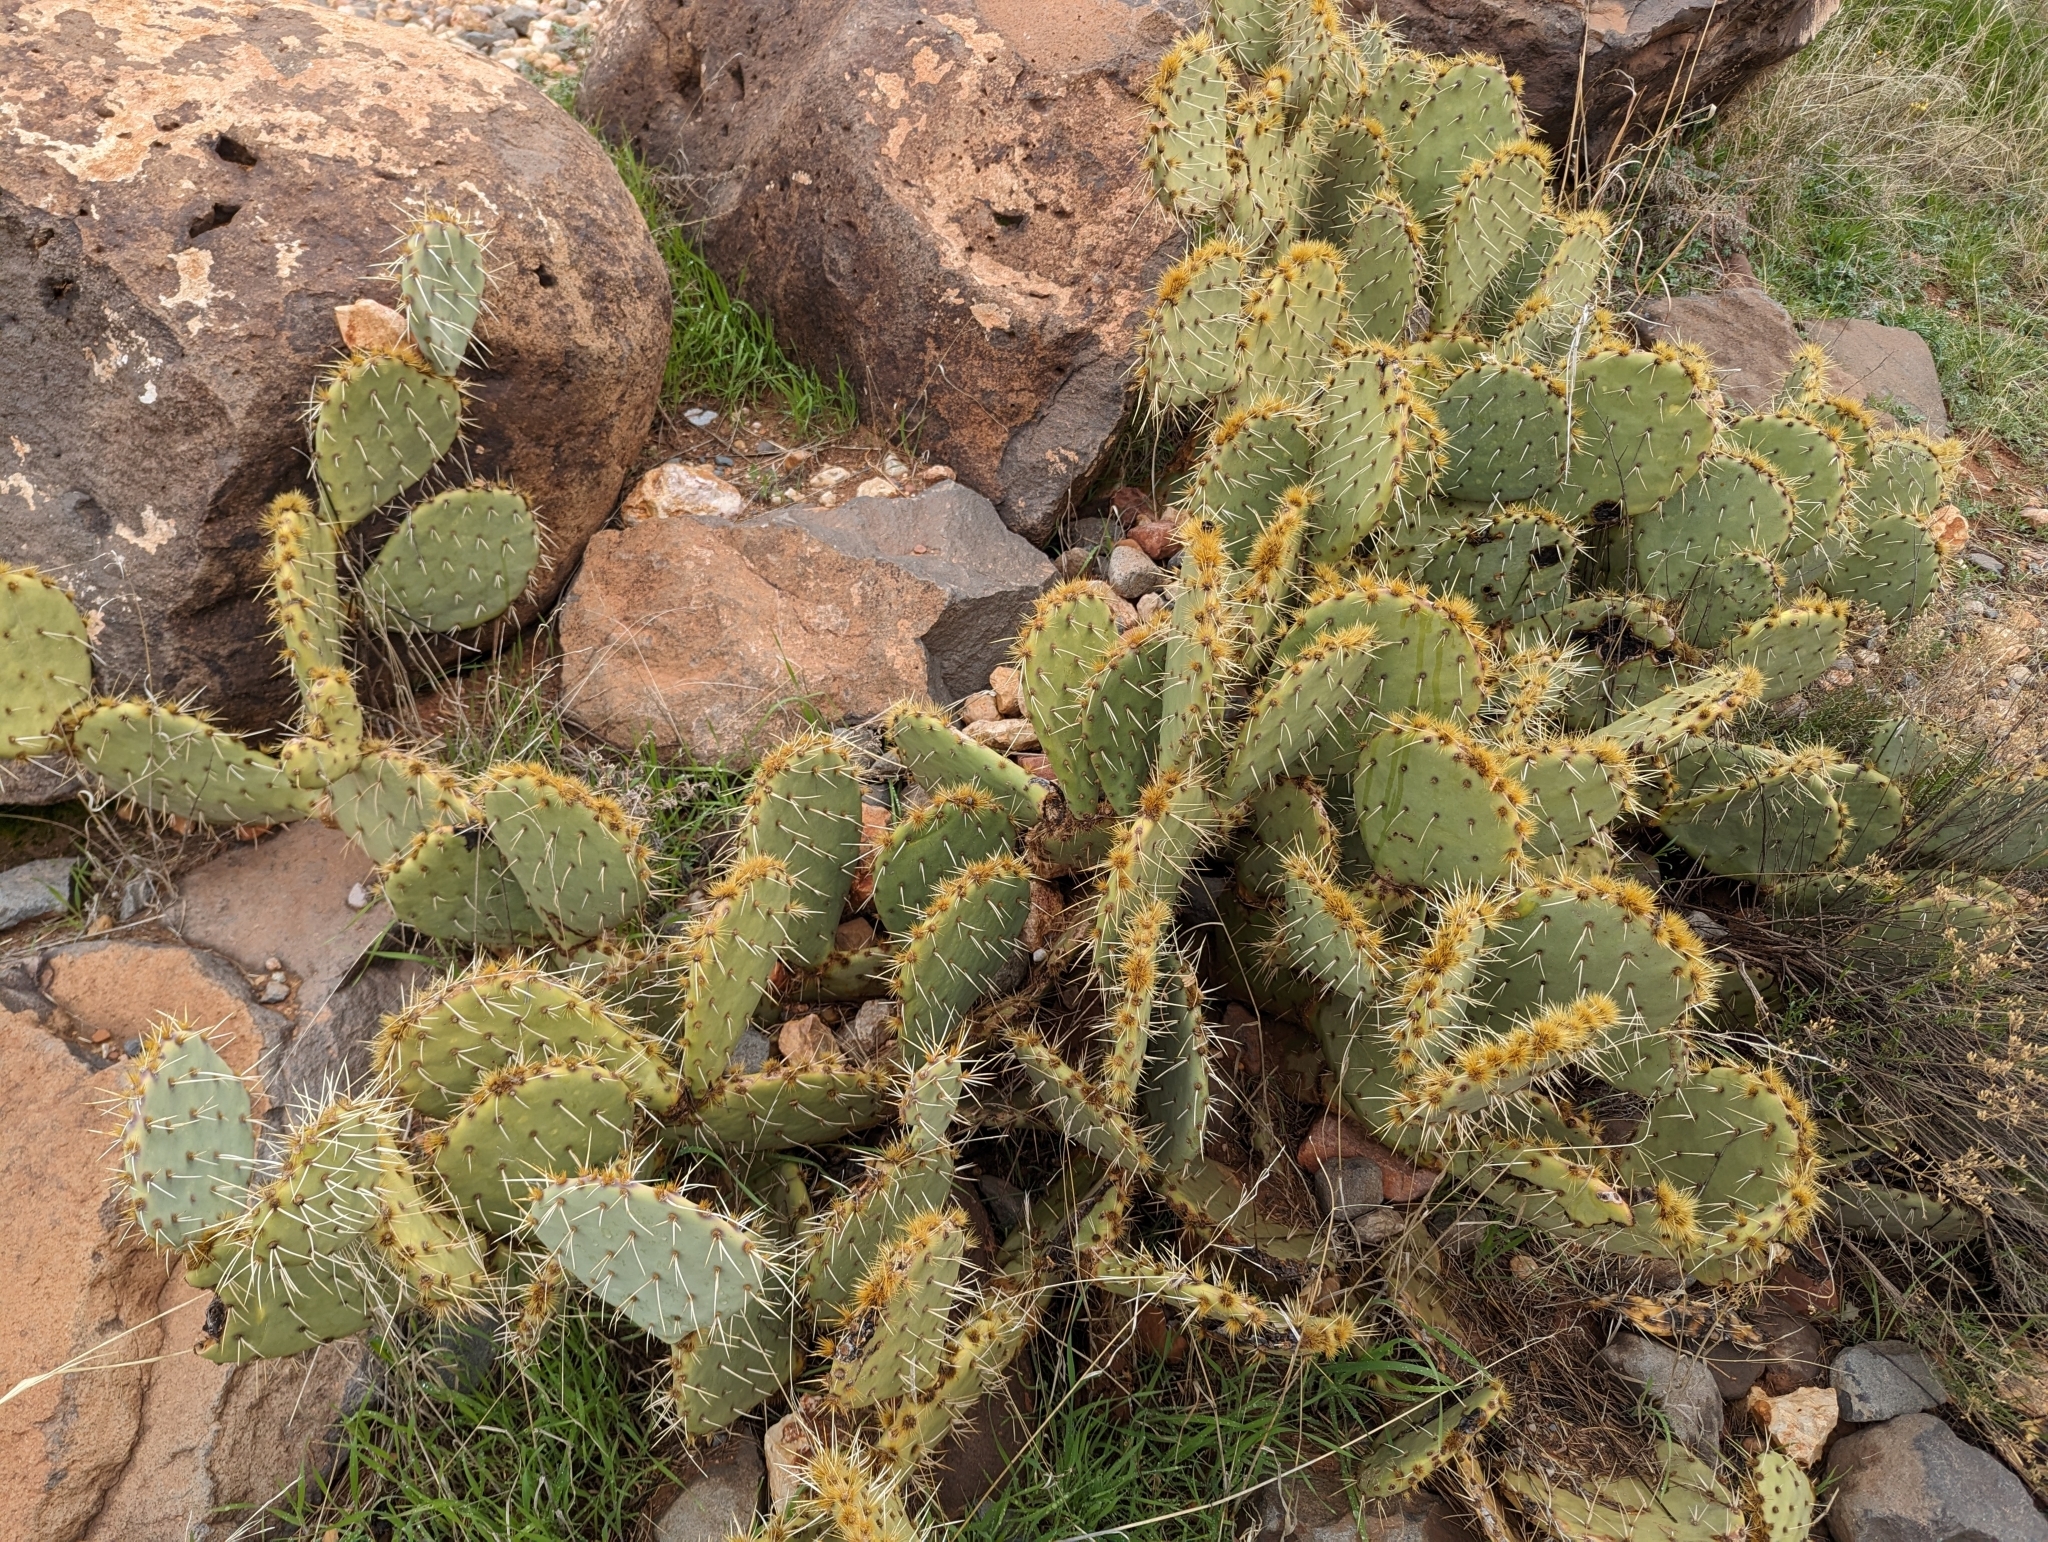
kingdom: Plantae
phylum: Tracheophyta
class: Magnoliopsida
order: Caryophyllales
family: Cactaceae
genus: Opuntia
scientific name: Opuntia phaeacantha
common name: New mexico prickly-pear
